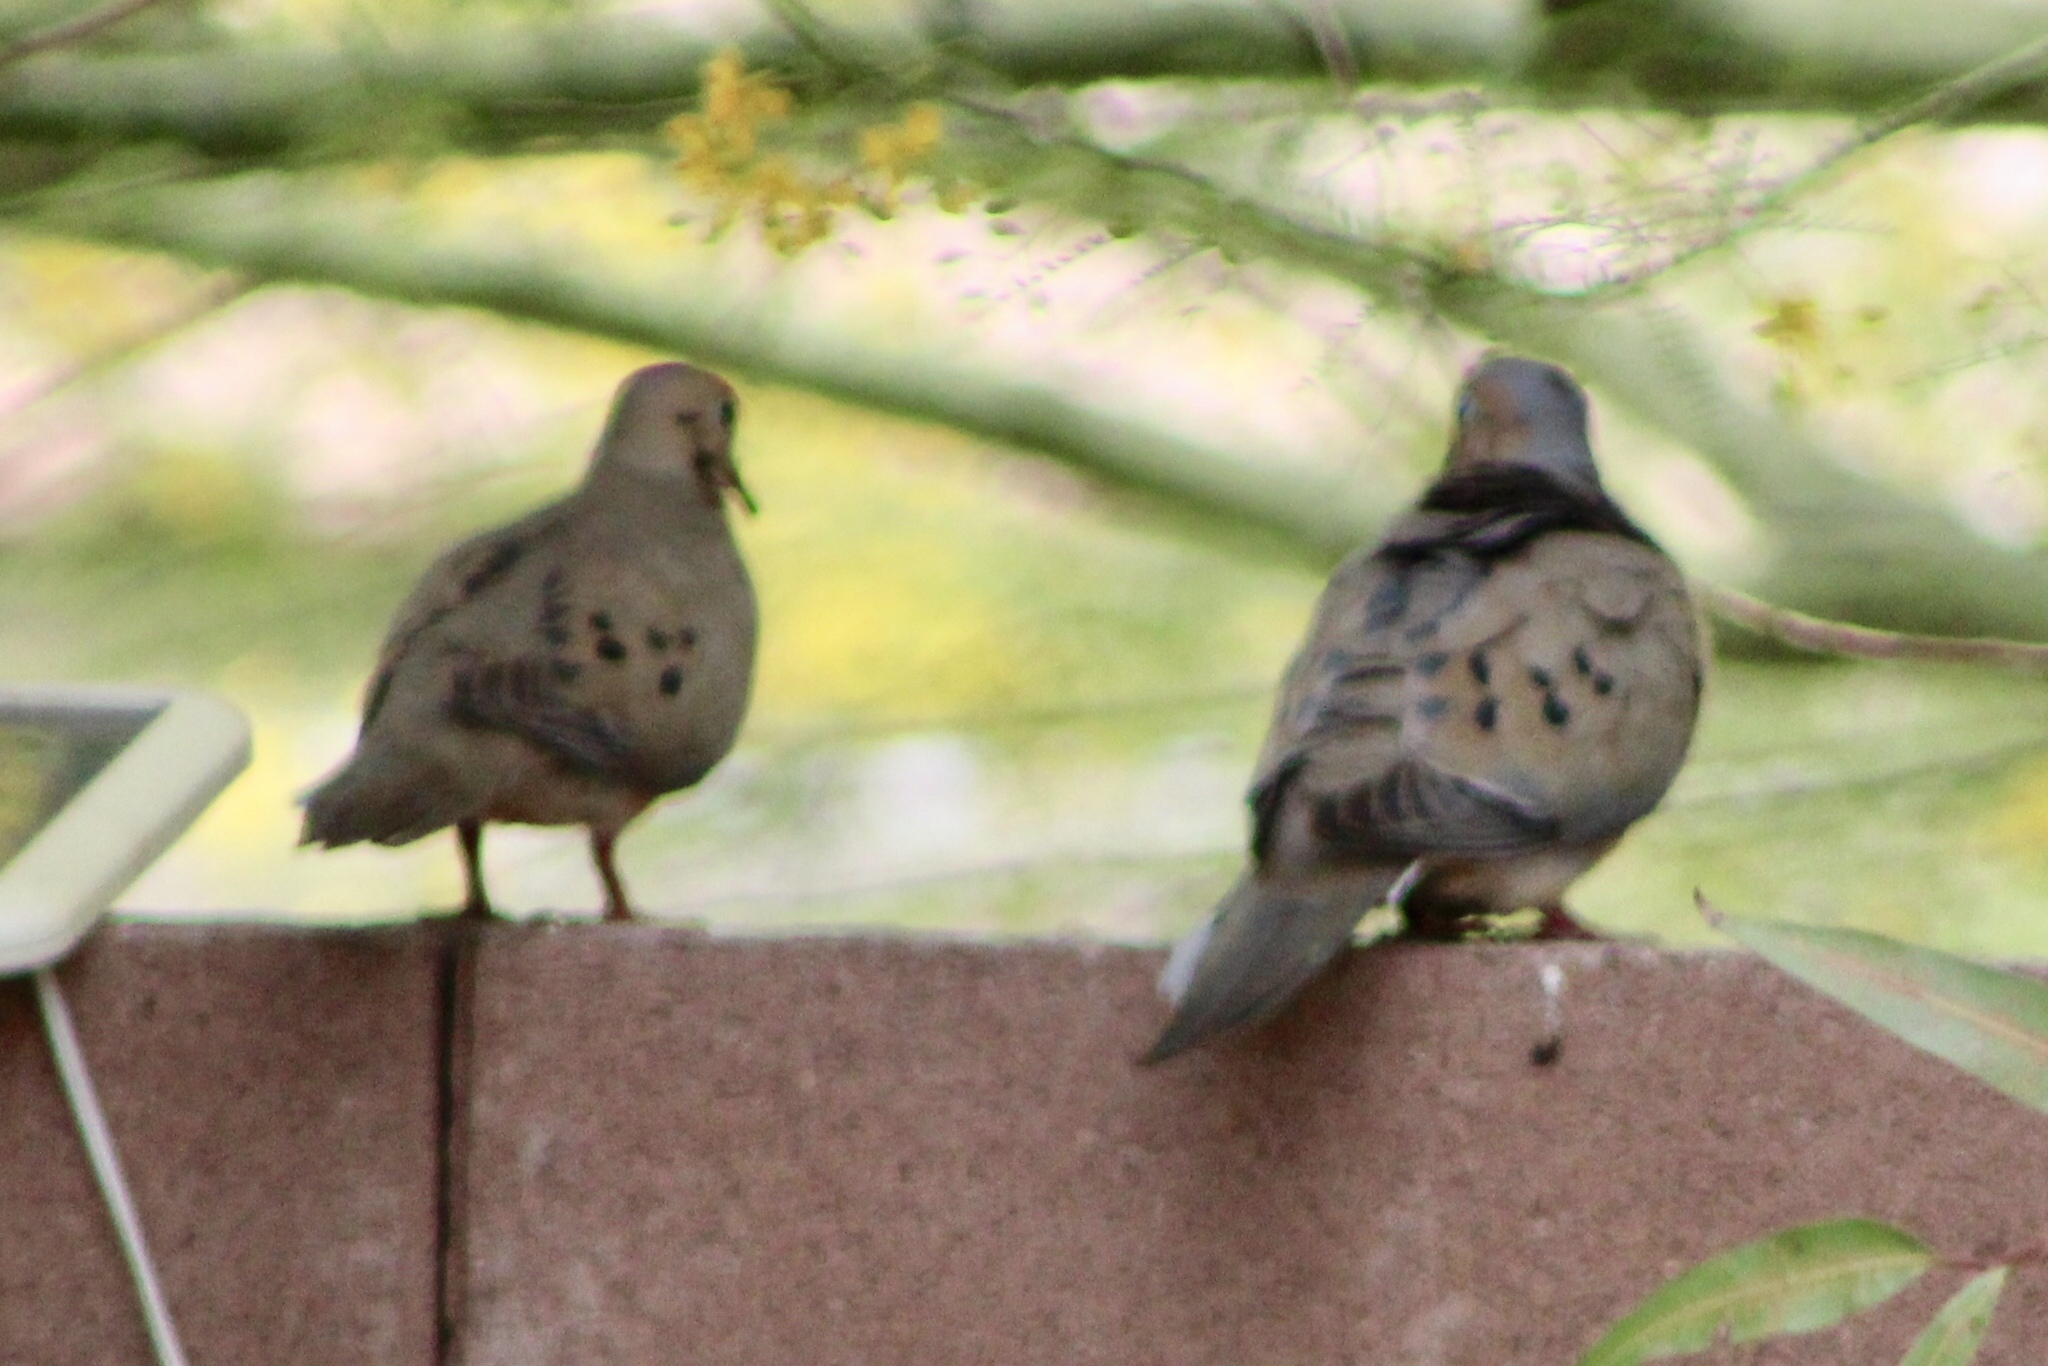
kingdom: Animalia
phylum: Chordata
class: Aves
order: Columbiformes
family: Columbidae
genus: Zenaida
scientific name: Zenaida macroura
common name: Mourning dove
